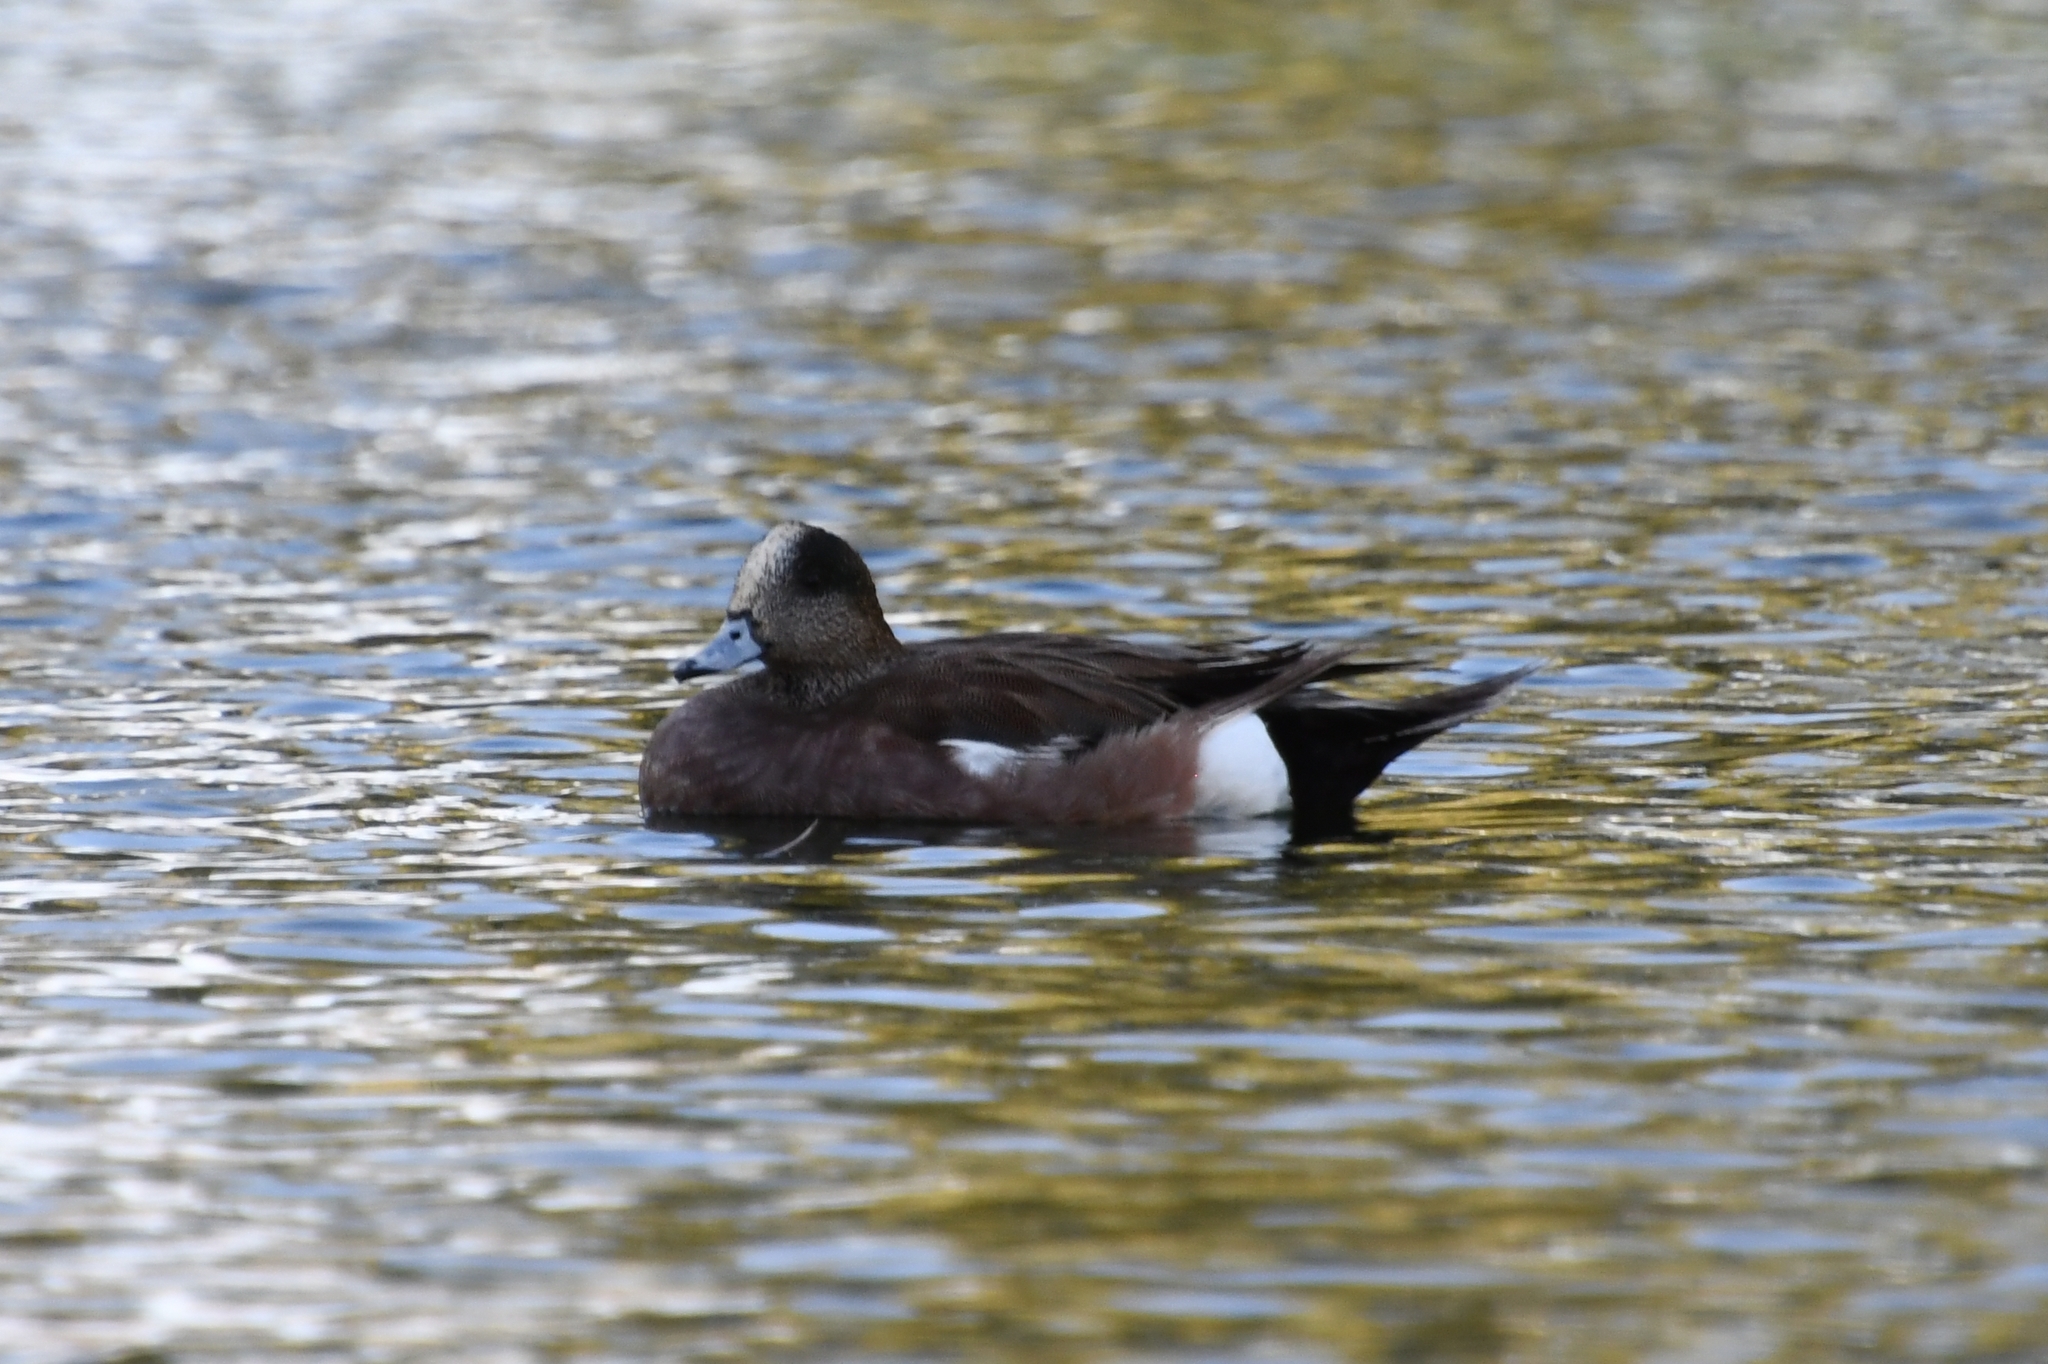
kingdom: Animalia
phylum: Chordata
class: Aves
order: Anseriformes
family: Anatidae
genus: Mareca
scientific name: Mareca americana
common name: American wigeon
